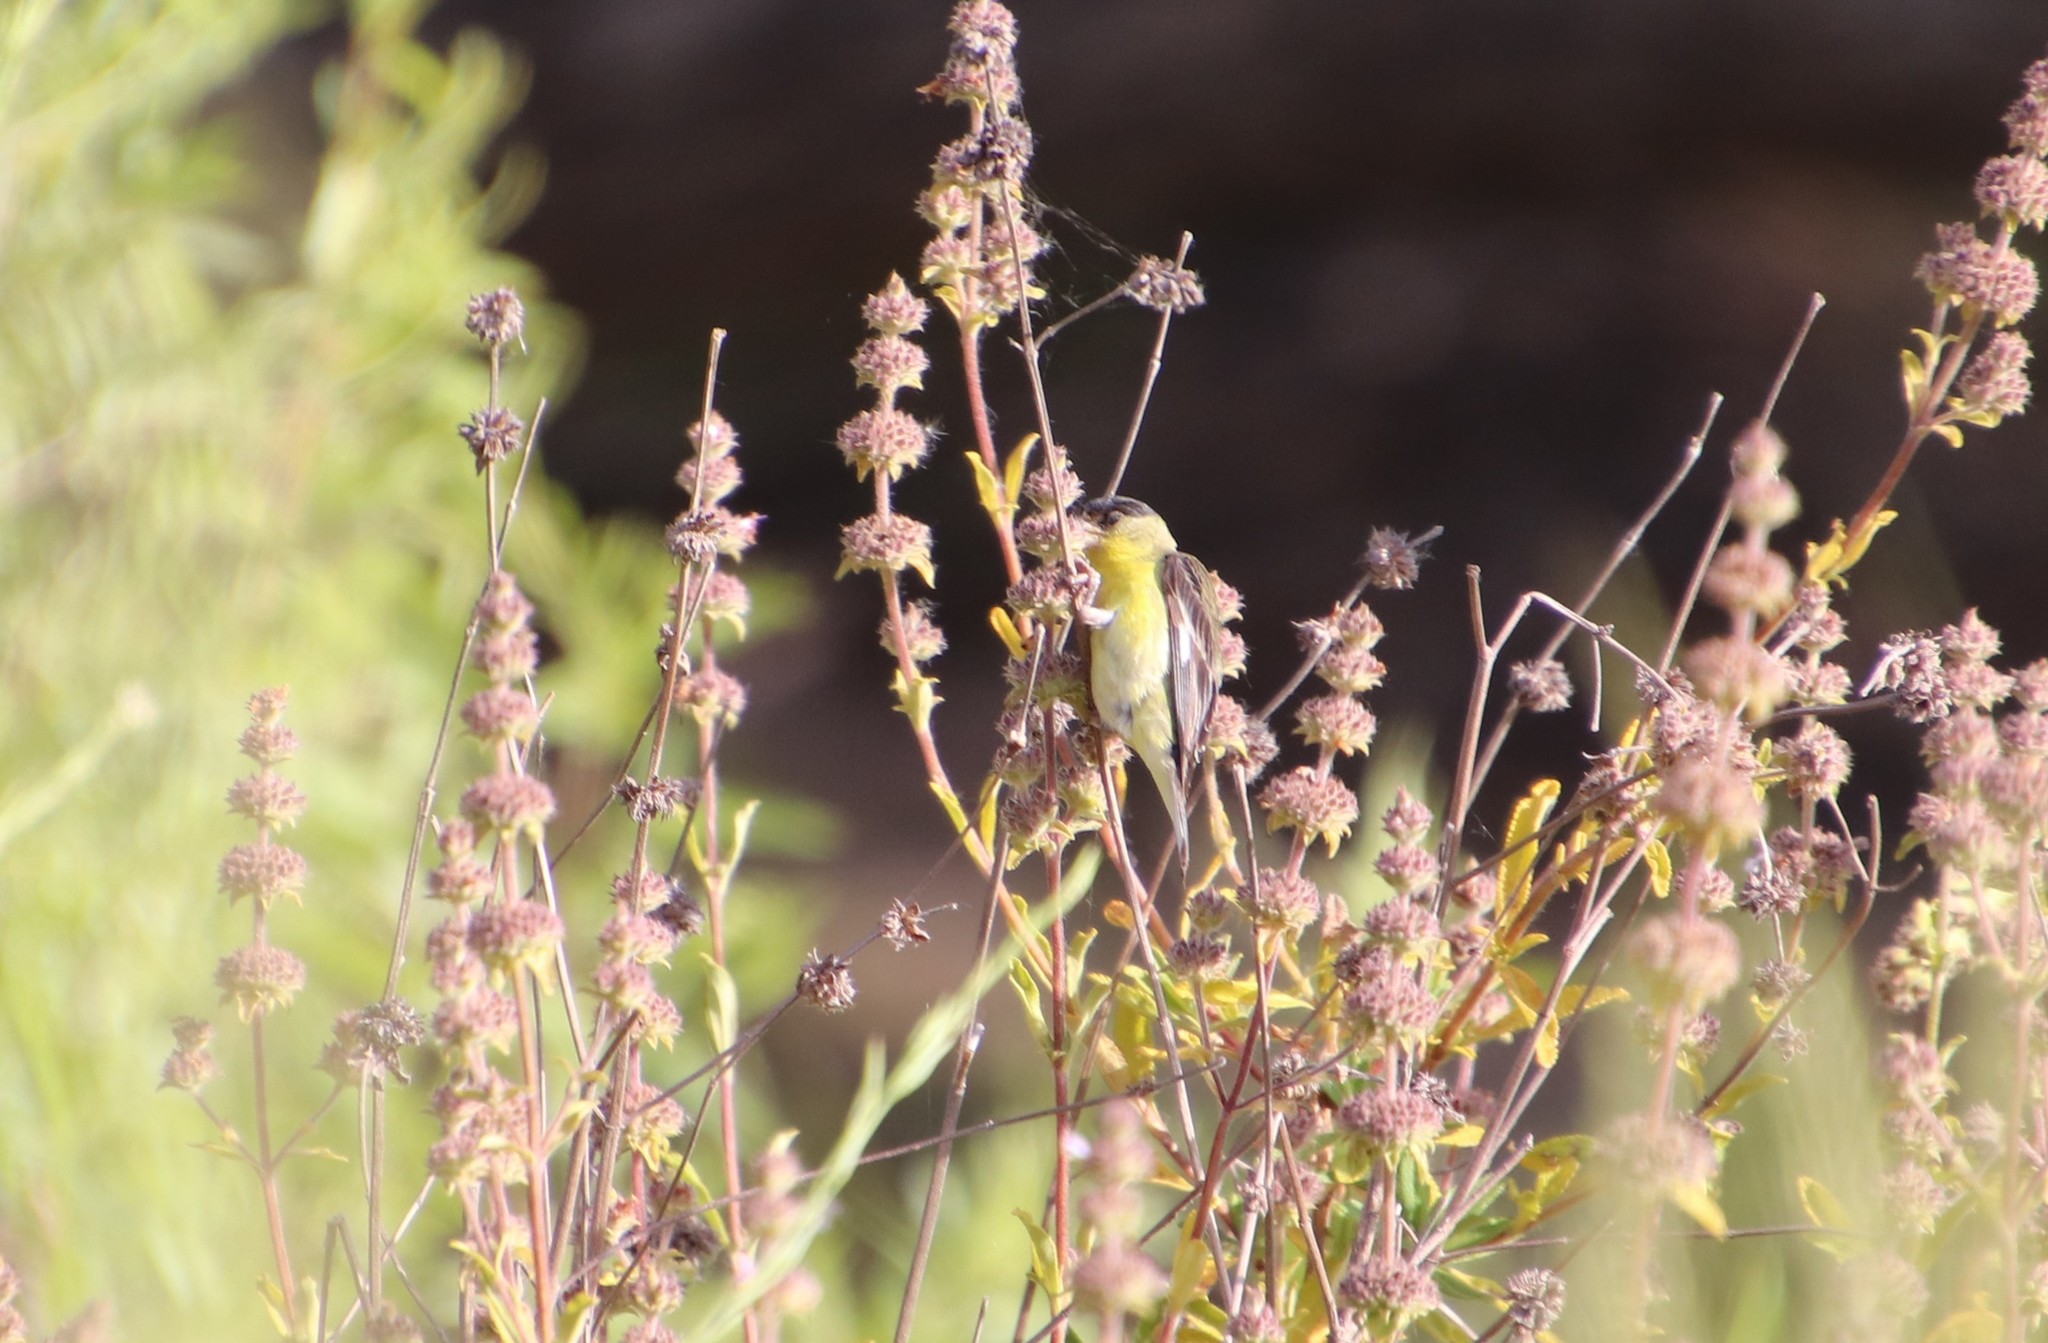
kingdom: Animalia
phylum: Chordata
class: Aves
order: Passeriformes
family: Fringillidae
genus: Spinus
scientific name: Spinus psaltria
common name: Lesser goldfinch
